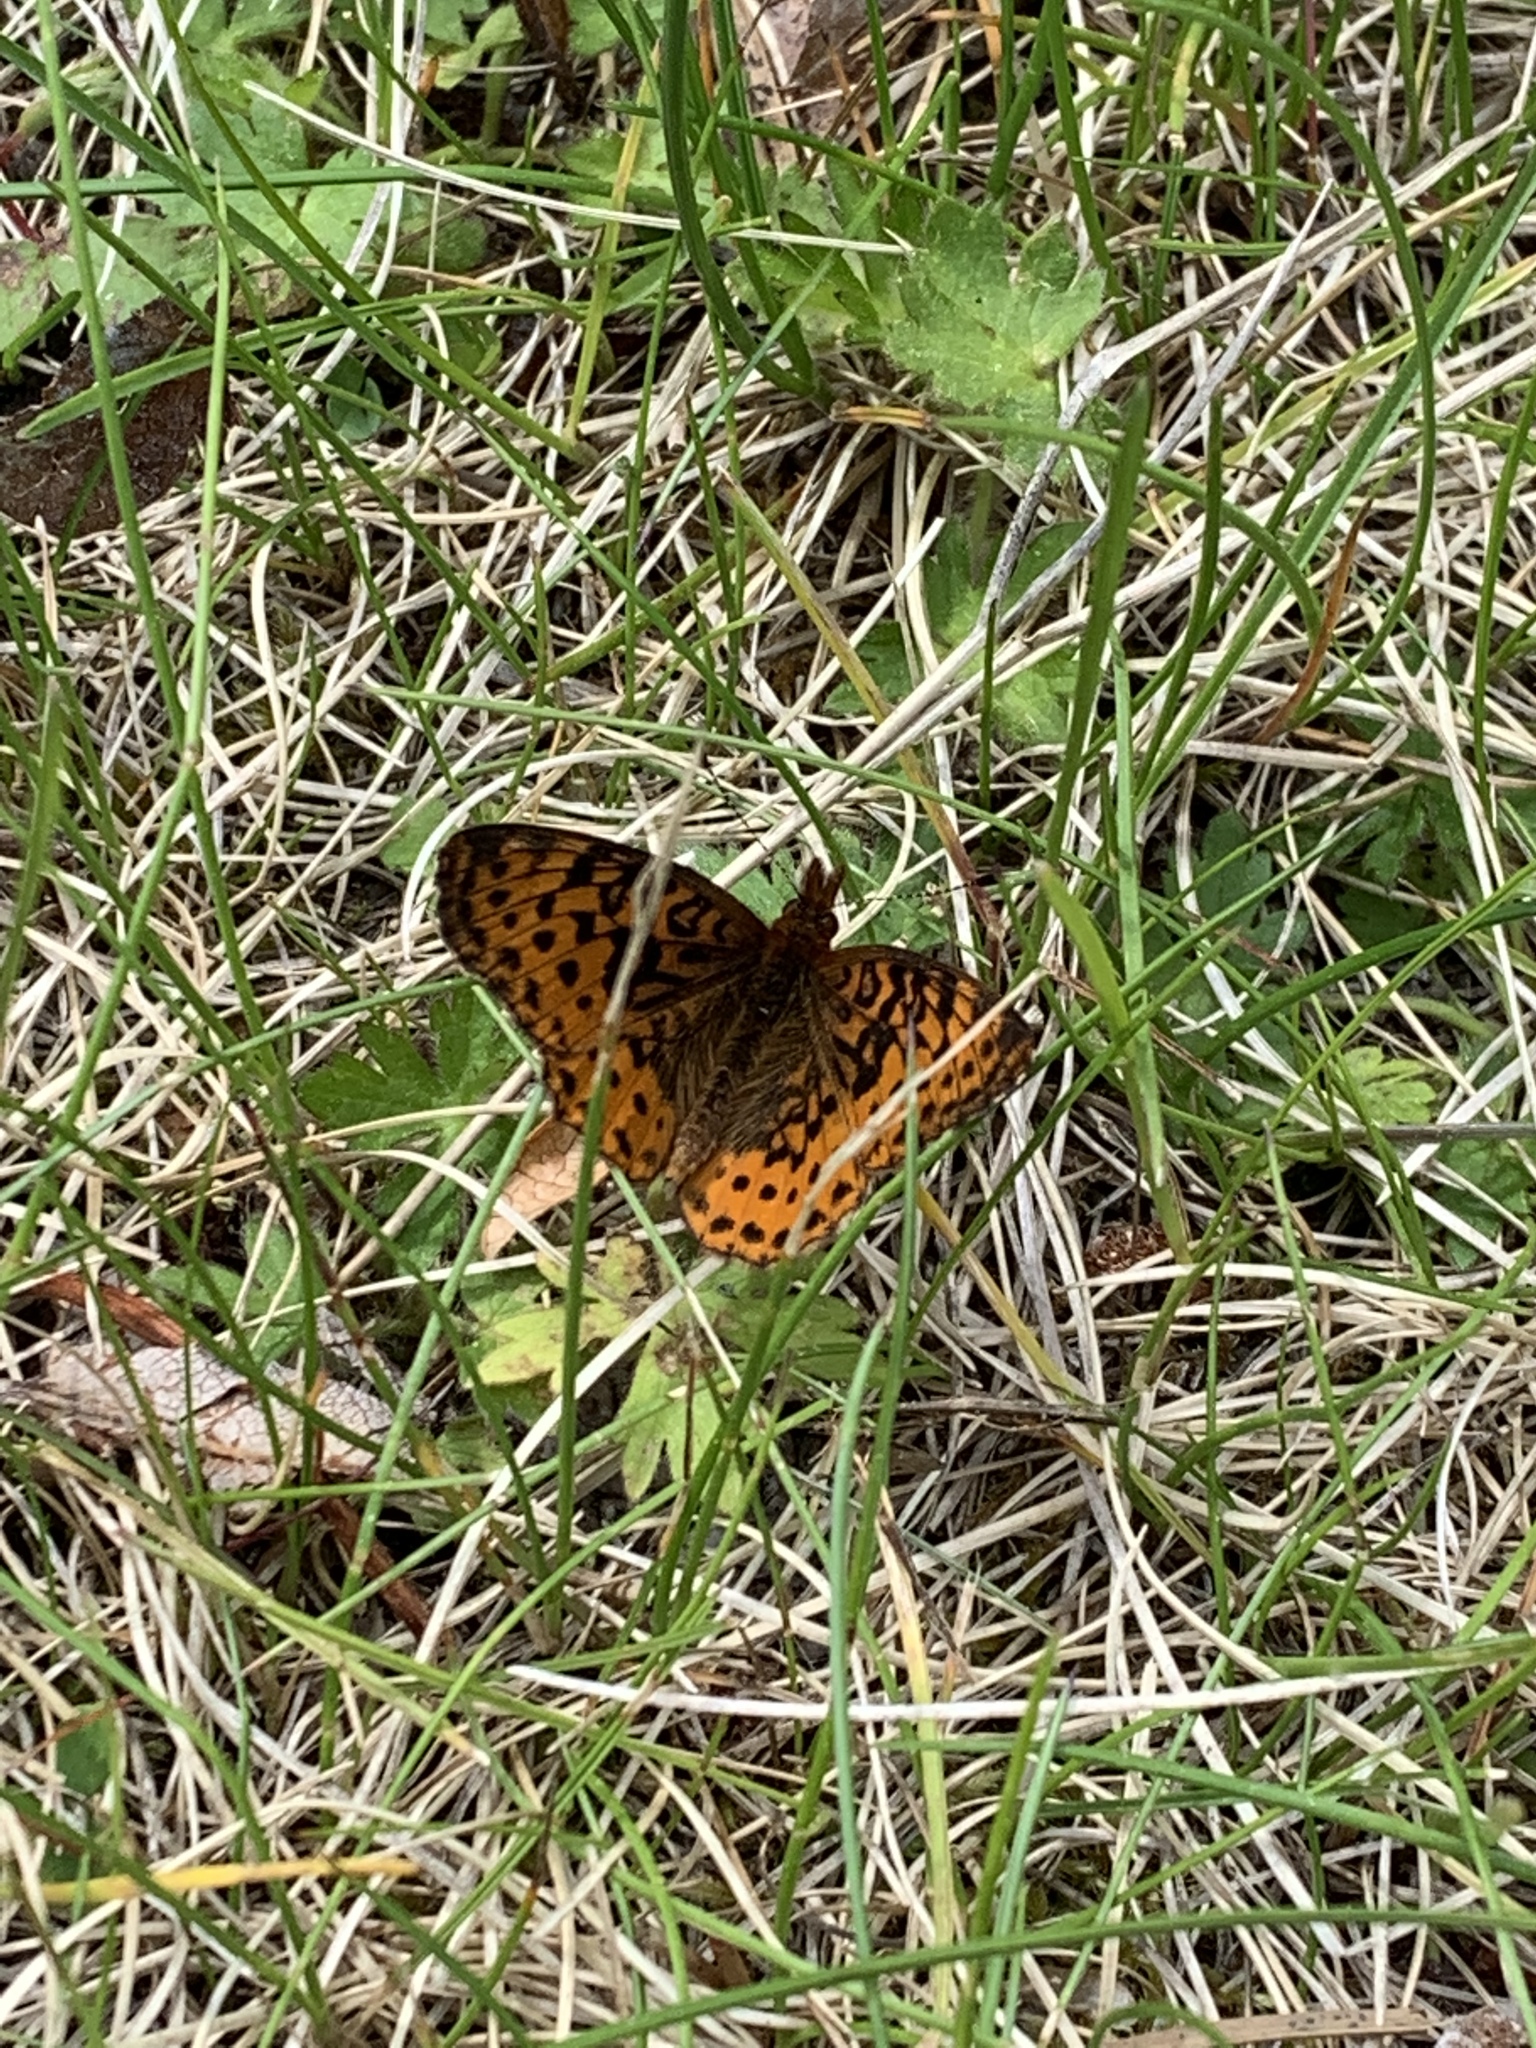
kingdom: Animalia
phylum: Arthropoda
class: Insecta
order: Lepidoptera
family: Nymphalidae
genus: Clossiana
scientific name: Clossiana toddi
